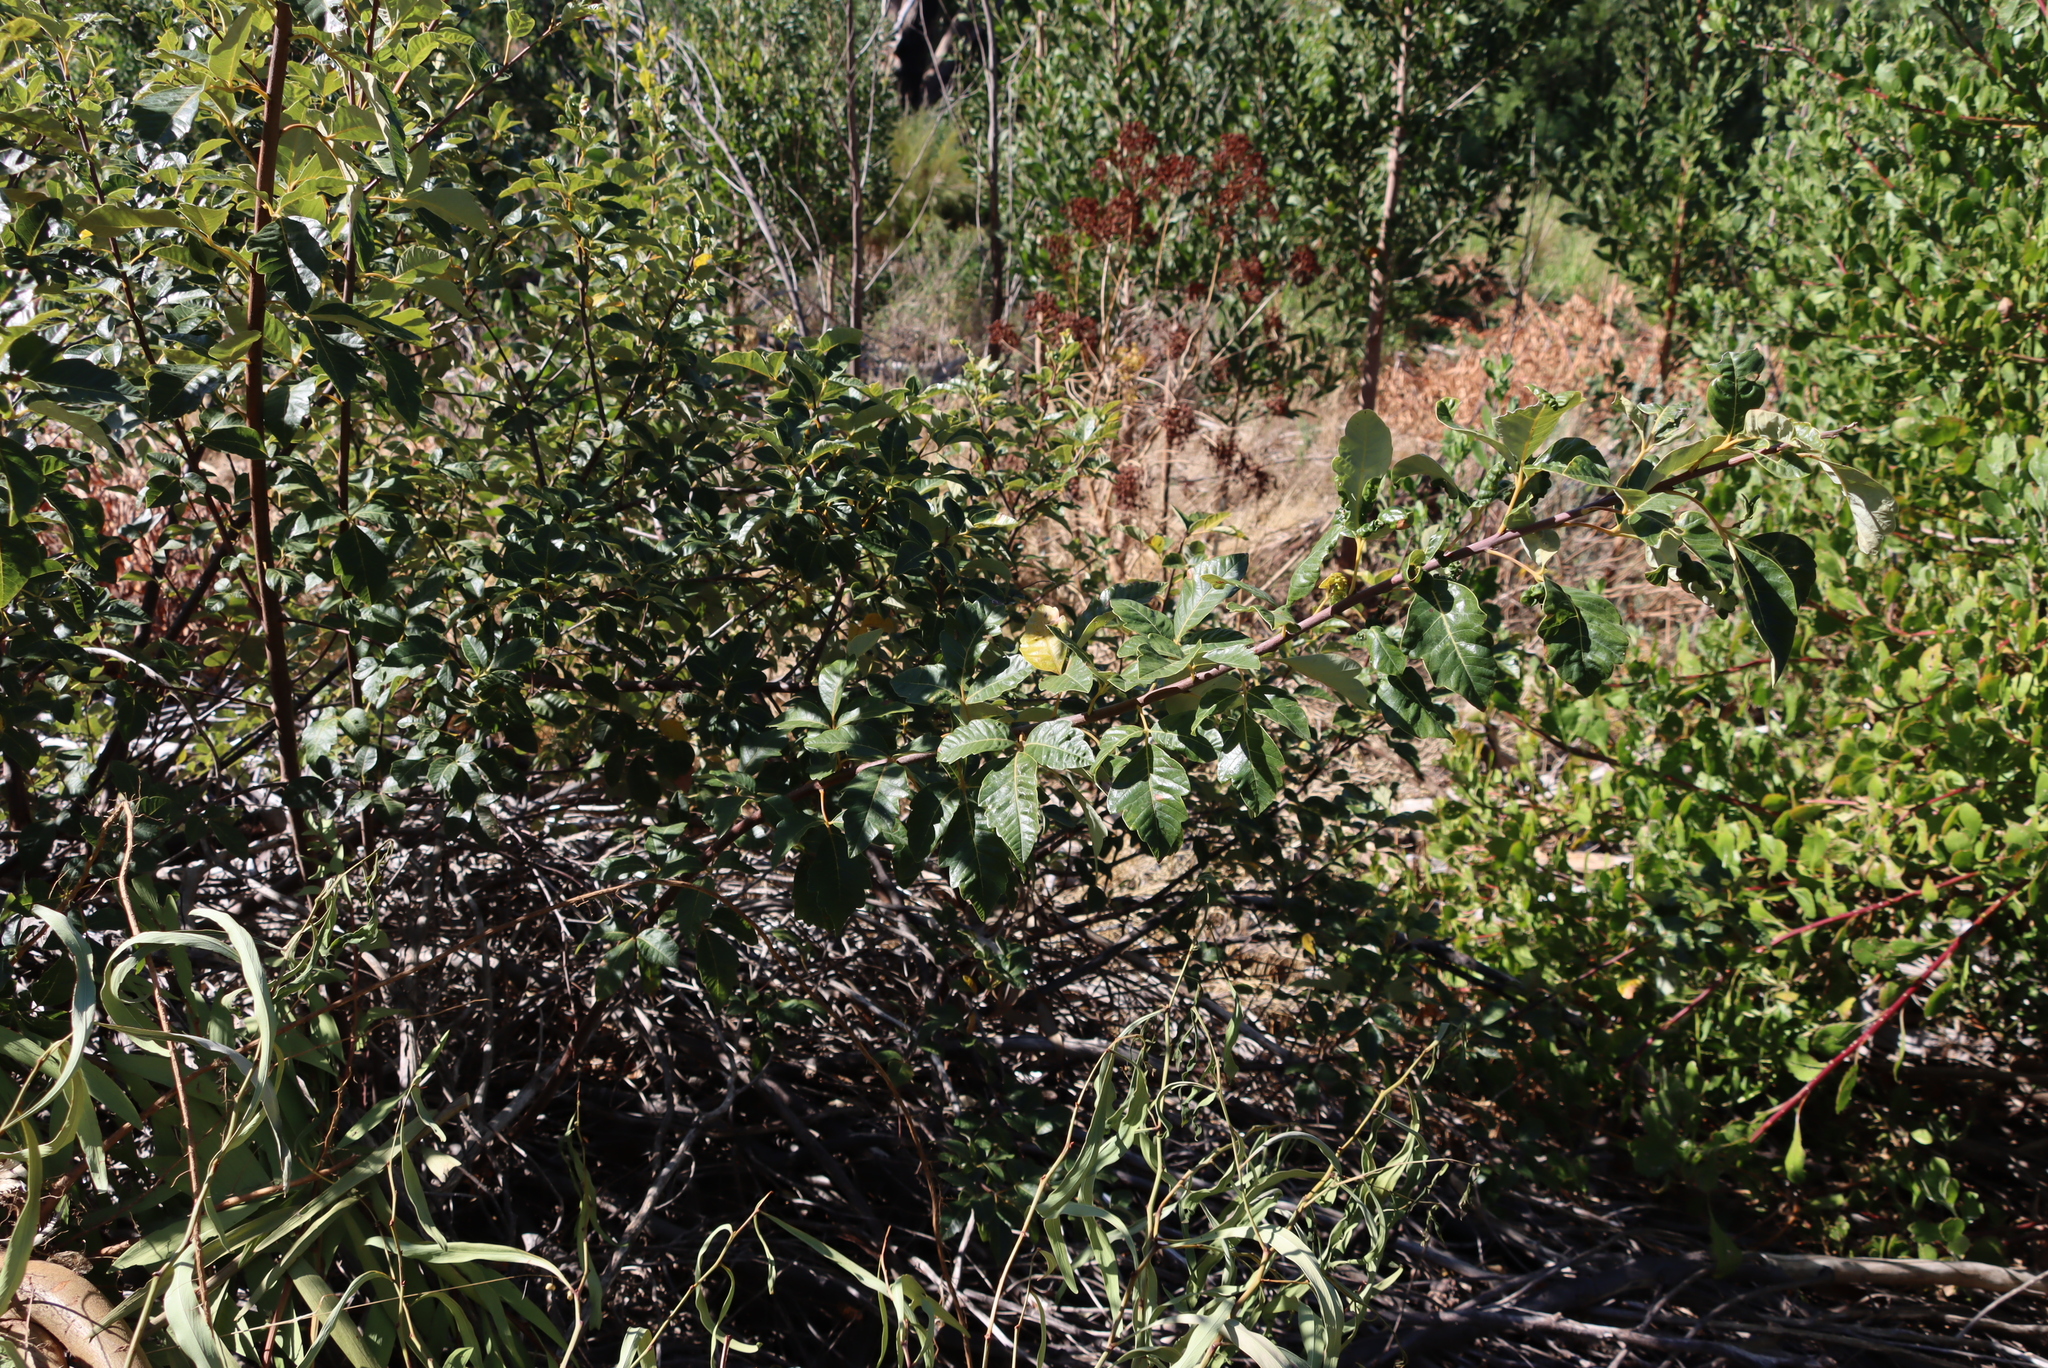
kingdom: Plantae
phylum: Tracheophyta
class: Magnoliopsida
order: Sapindales
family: Anacardiaceae
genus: Searsia
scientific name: Searsia tomentosa
